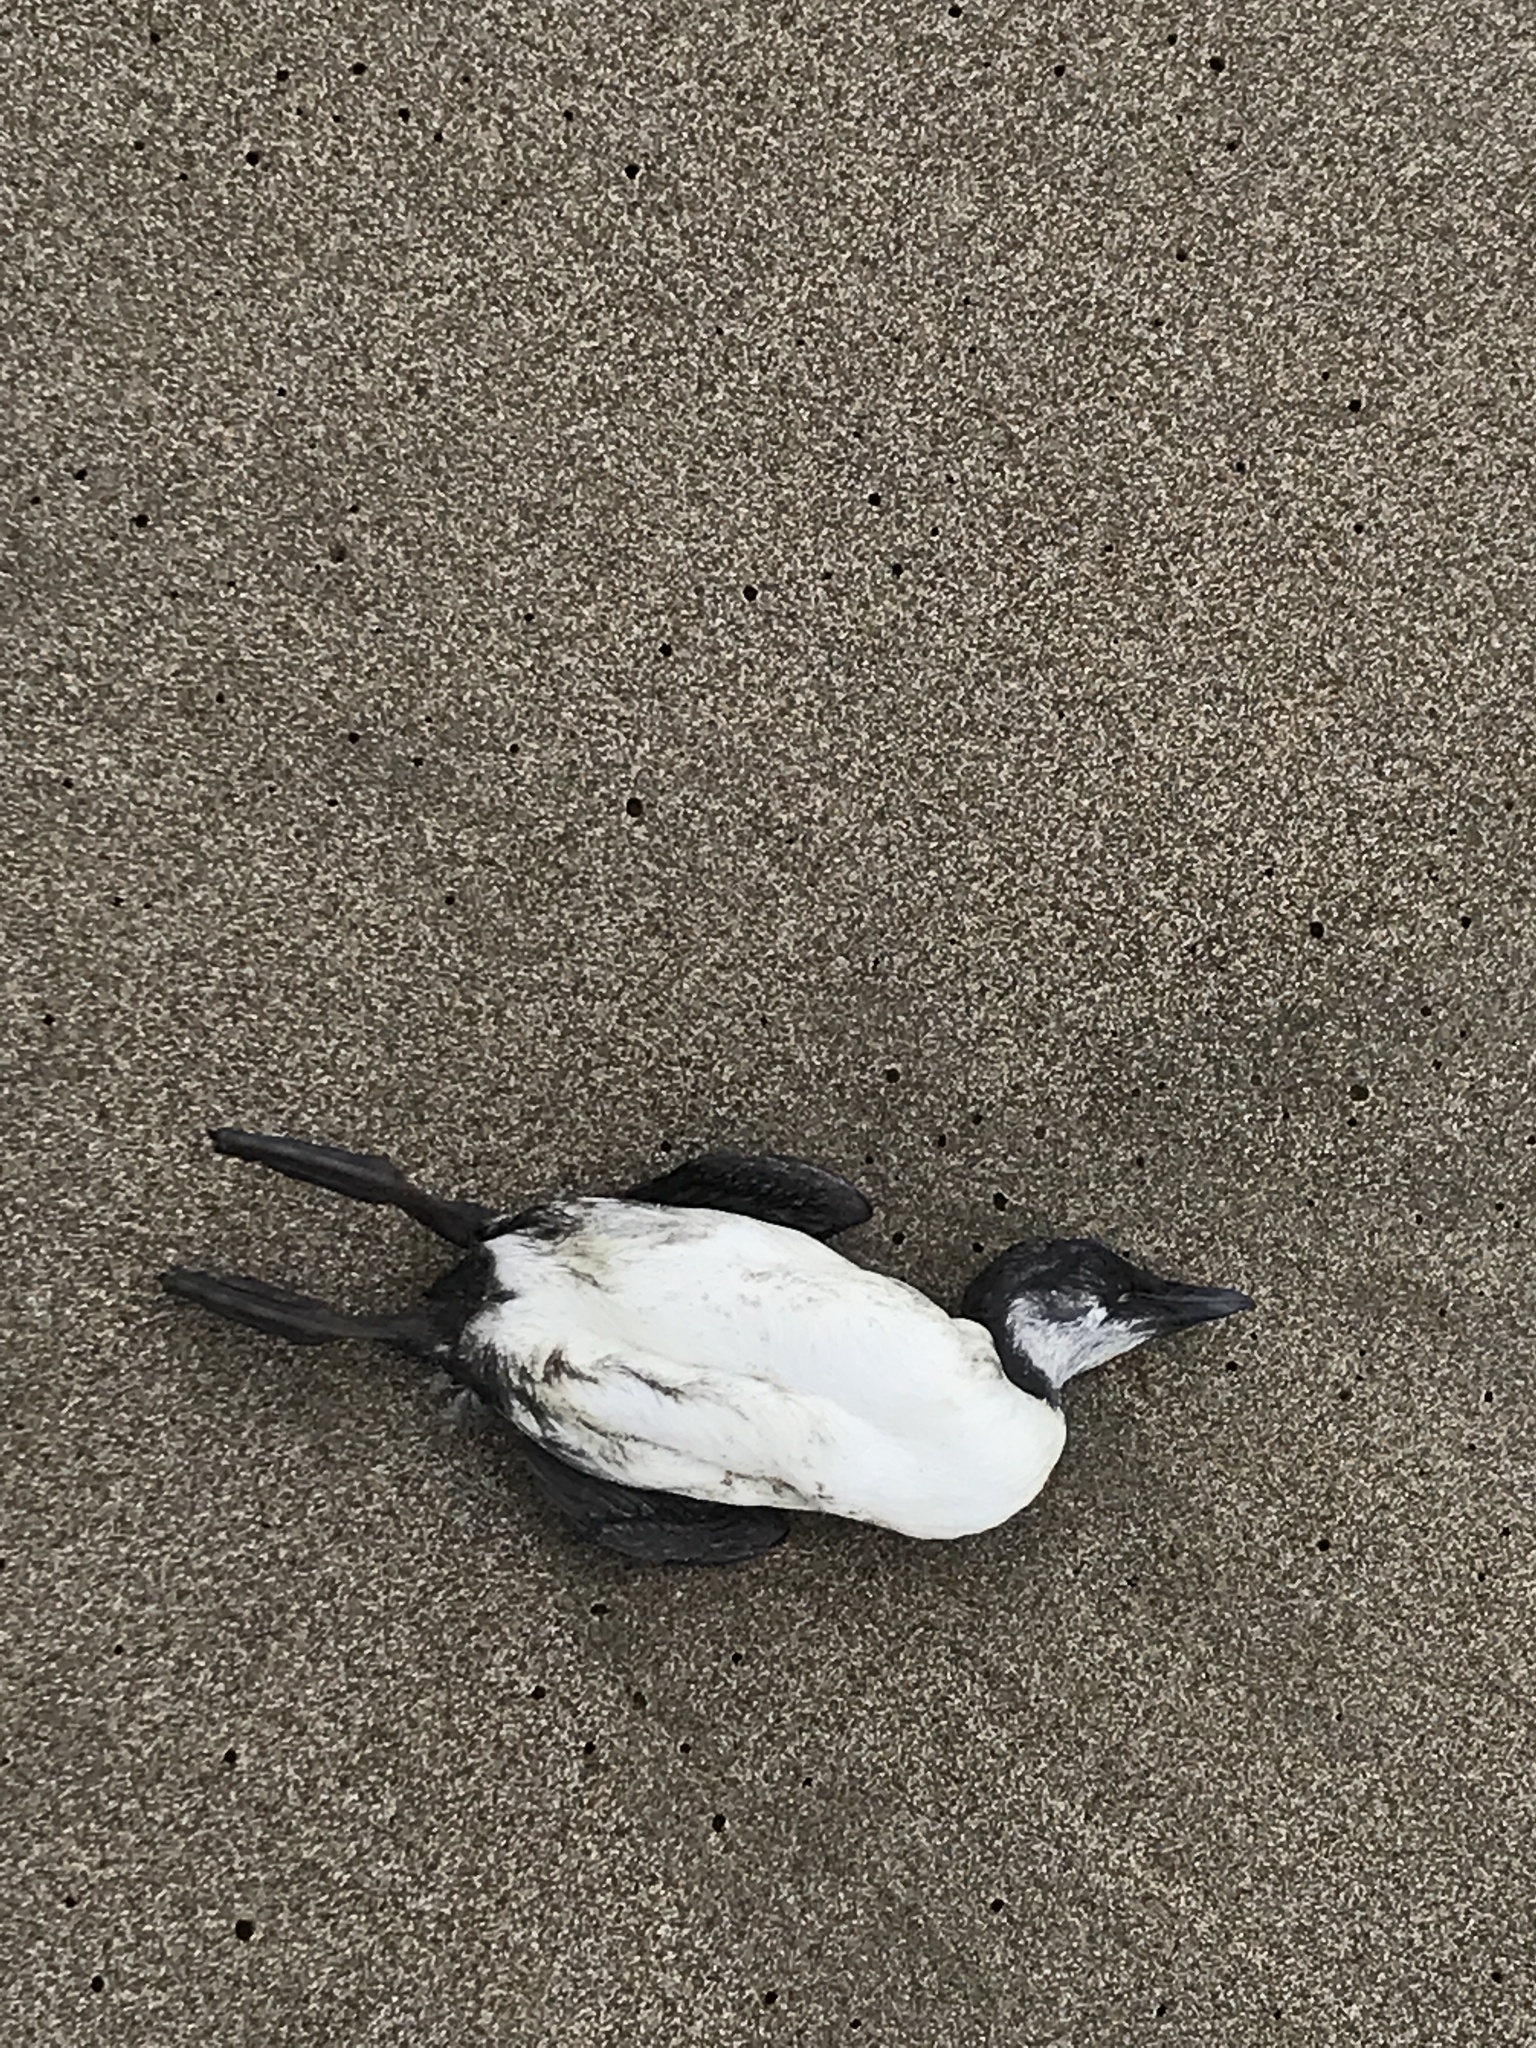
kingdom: Animalia
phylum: Chordata
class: Aves
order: Charadriiformes
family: Alcidae
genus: Uria
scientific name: Uria aalge
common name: Common murre
